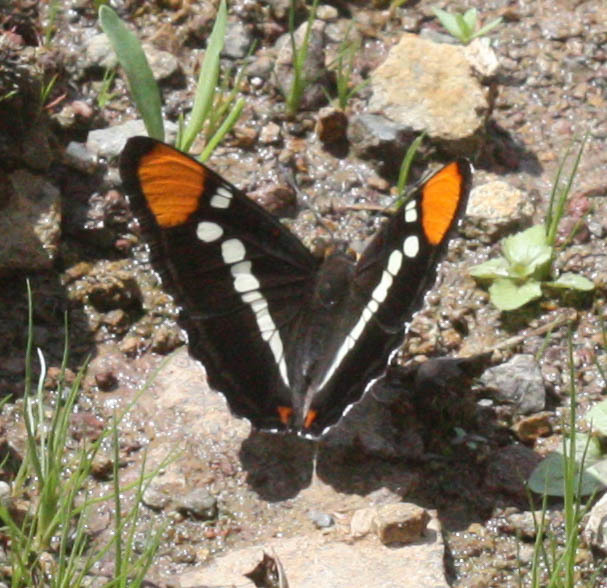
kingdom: Animalia
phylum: Arthropoda
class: Insecta
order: Lepidoptera
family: Nymphalidae
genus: Limenitis
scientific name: Limenitis bredowii
